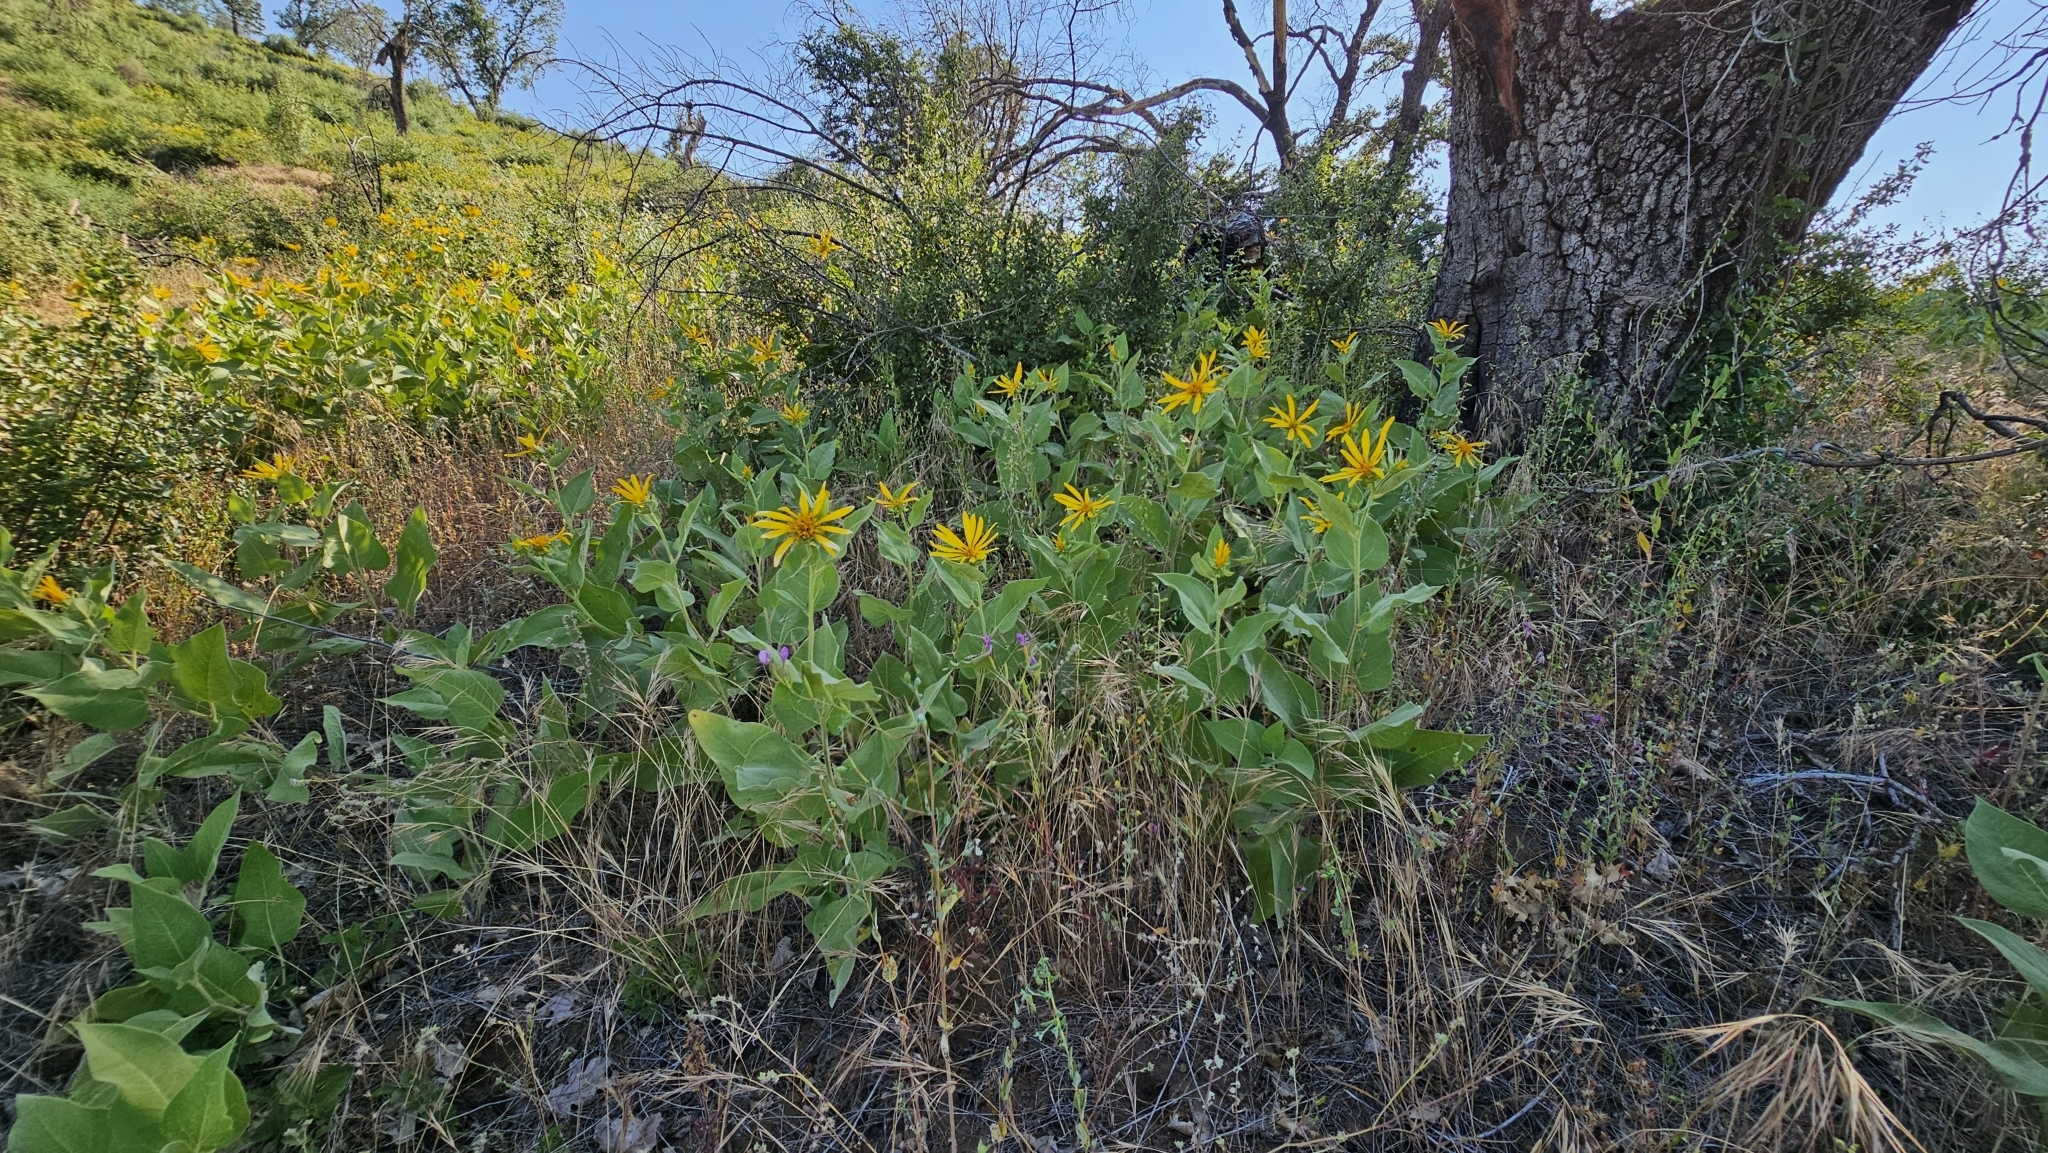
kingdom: Plantae
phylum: Tracheophyta
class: Magnoliopsida
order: Asterales
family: Asteraceae
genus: Agnorhiza
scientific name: Agnorhiza elata
